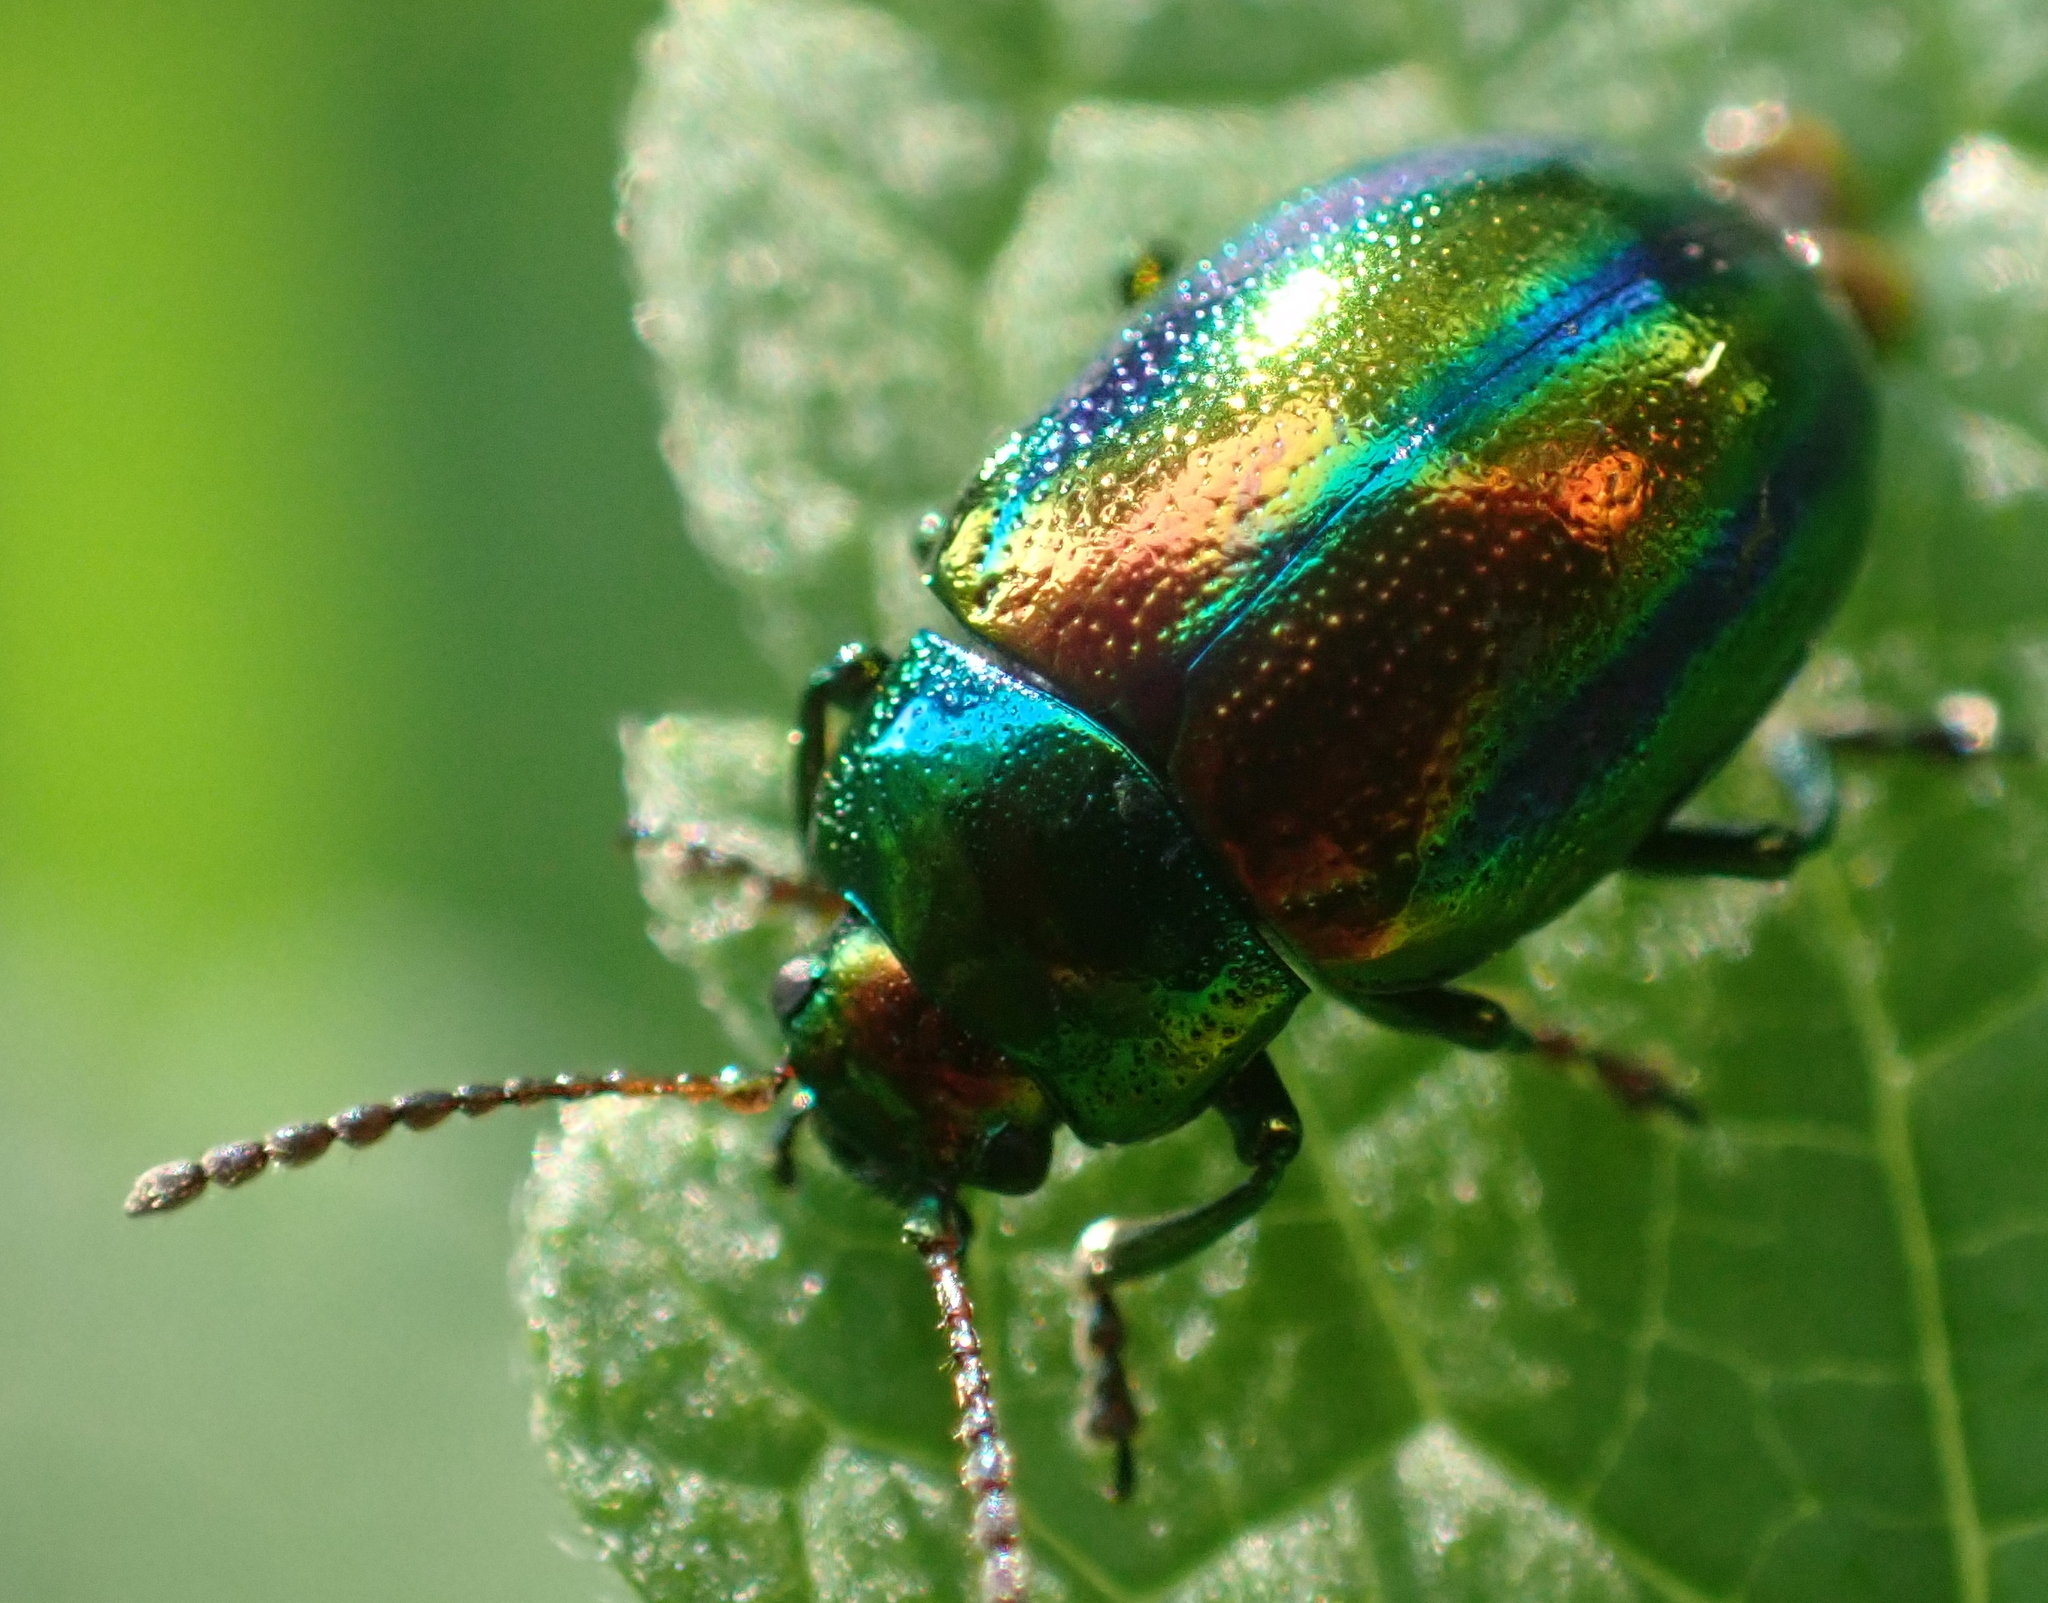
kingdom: Animalia
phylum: Arthropoda
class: Insecta
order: Coleoptera
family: Chrysomelidae
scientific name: Chrysomelidae
